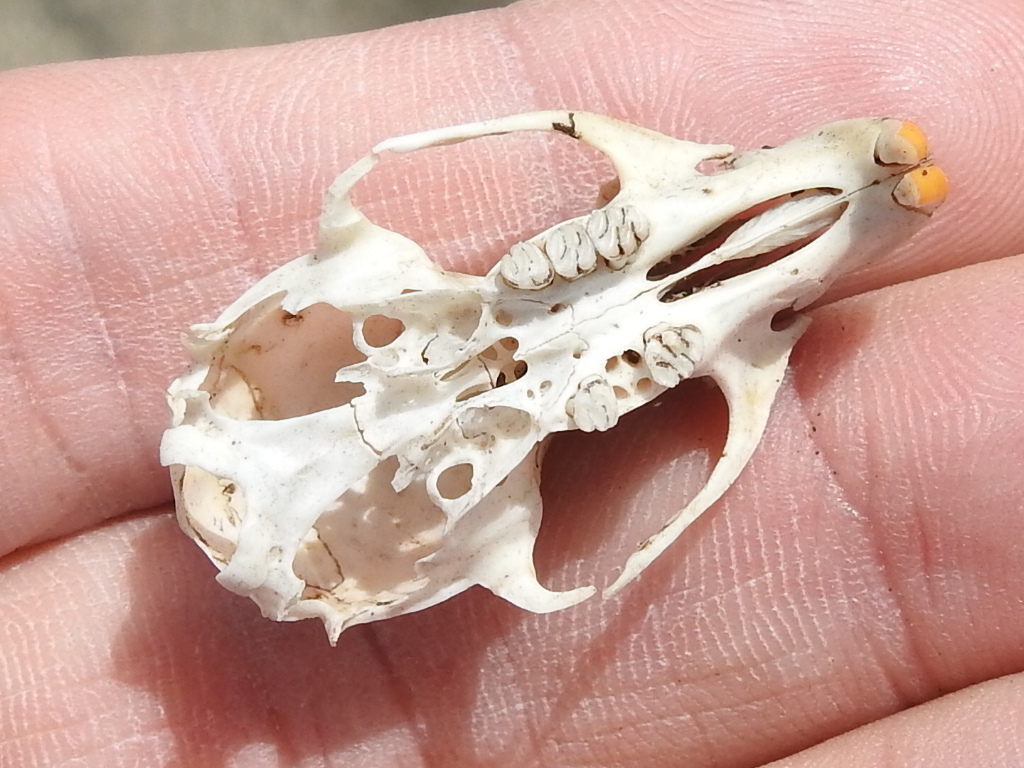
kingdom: Animalia
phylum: Chordata
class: Mammalia
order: Rodentia
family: Cricetidae
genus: Sigmodon
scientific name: Sigmodon hispidus
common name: Hispid cotton rat
